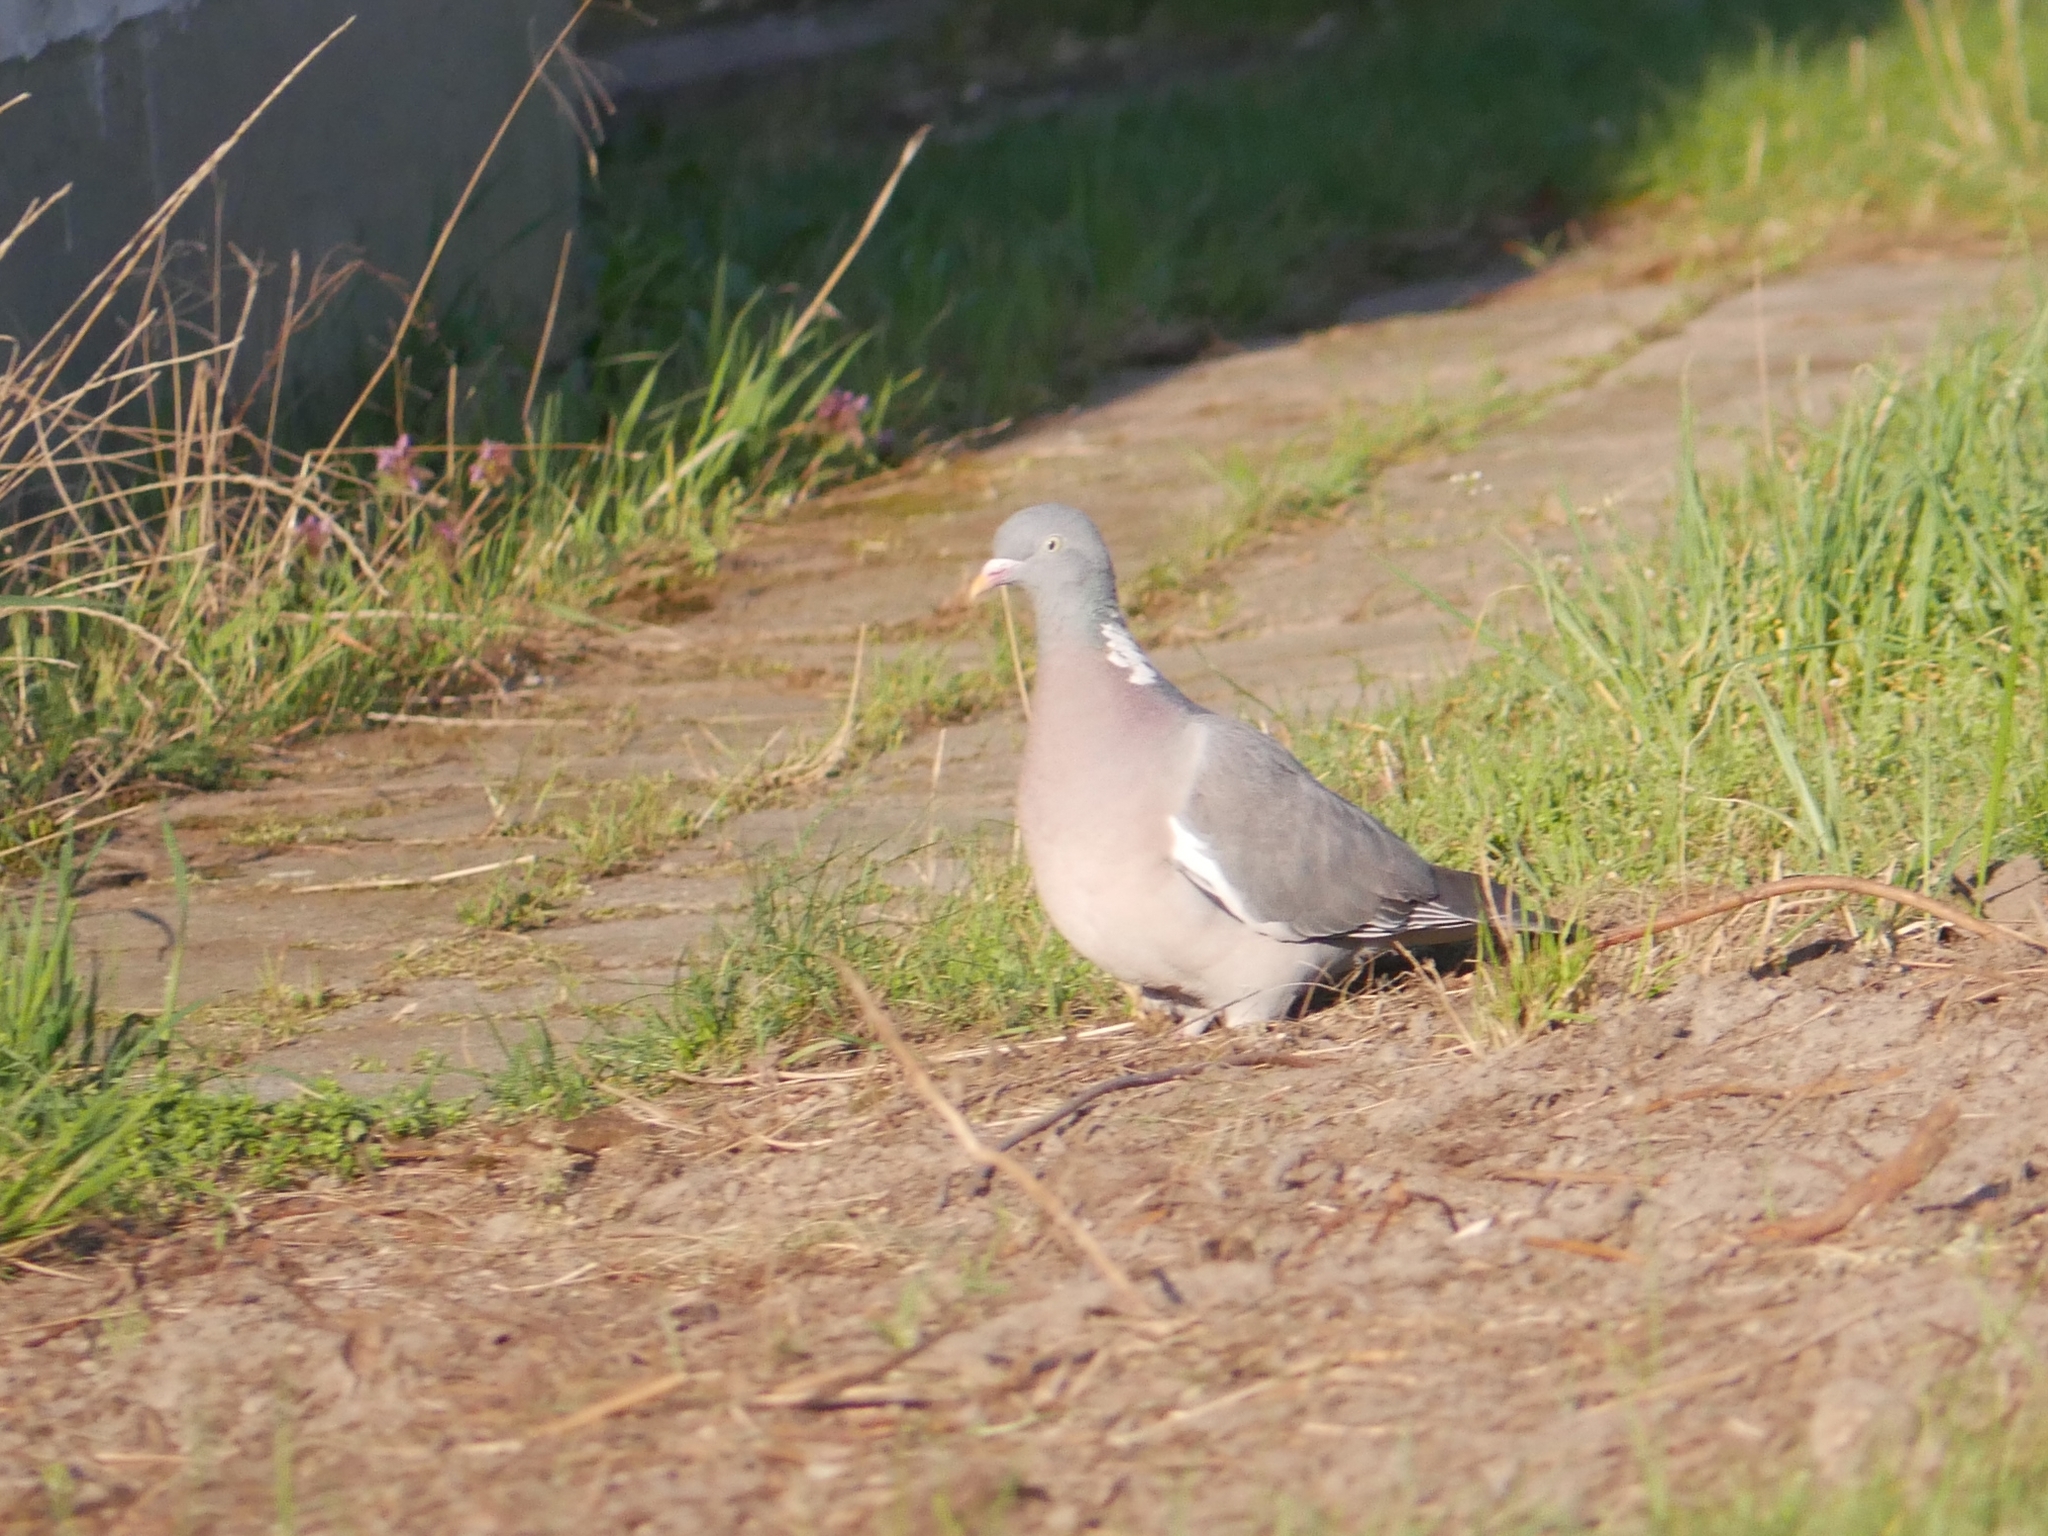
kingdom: Animalia
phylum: Chordata
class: Aves
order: Columbiformes
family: Columbidae
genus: Columba
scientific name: Columba palumbus
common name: Common wood pigeon
